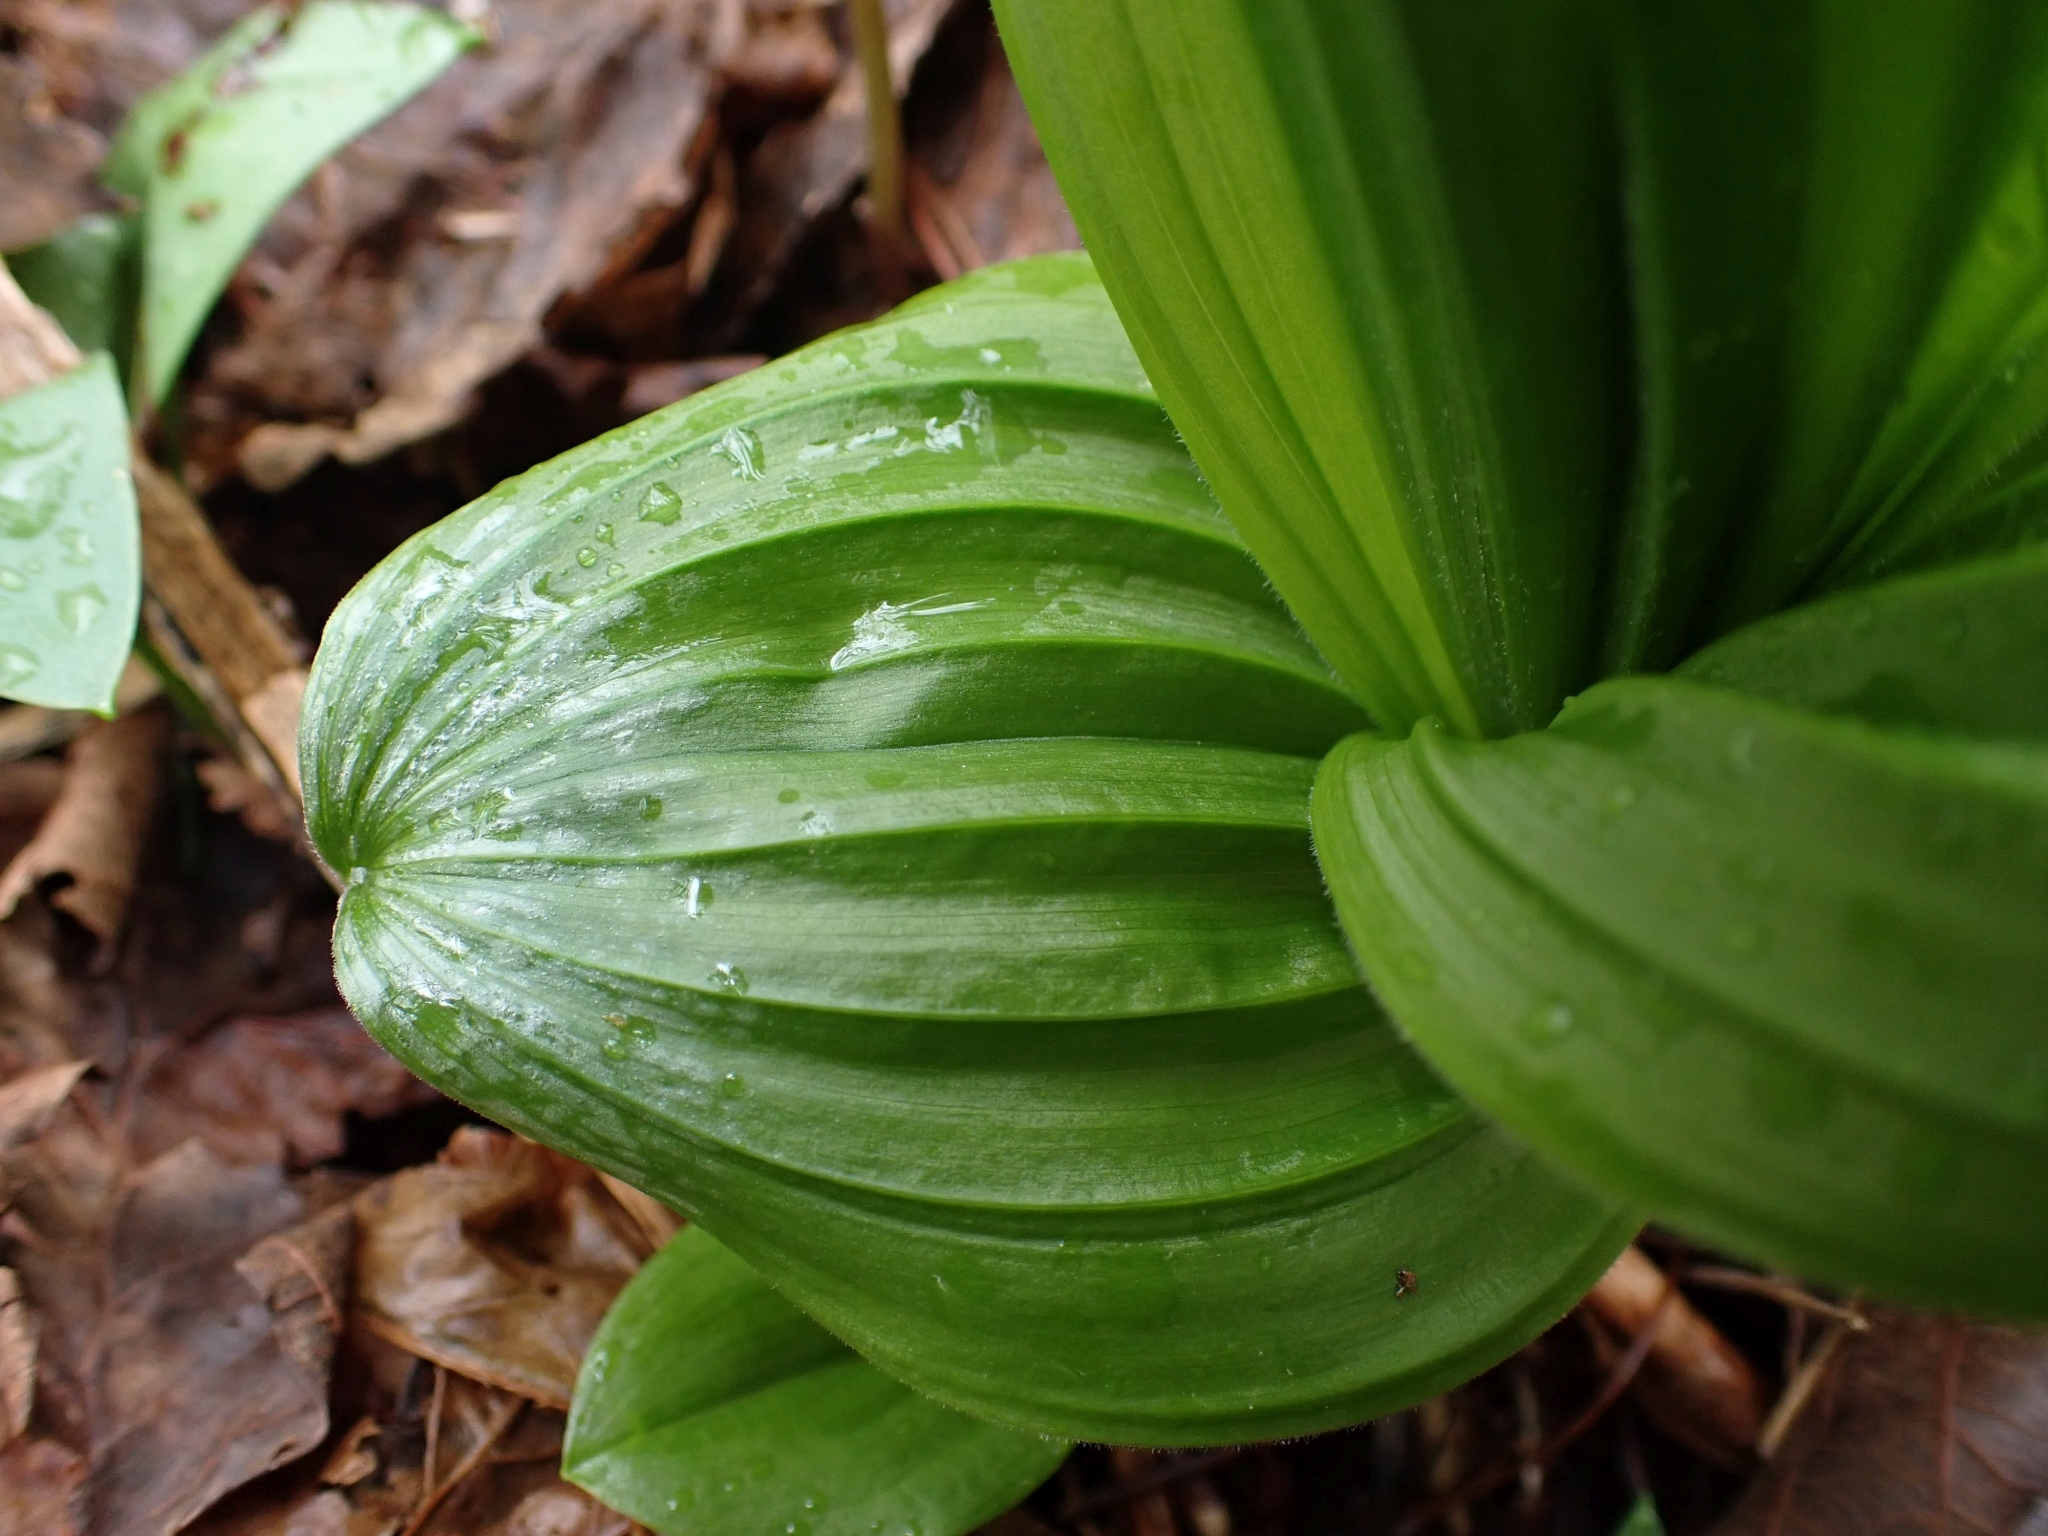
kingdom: Plantae
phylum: Tracheophyta
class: Liliopsida
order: Liliales
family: Melanthiaceae
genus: Veratrum
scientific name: Veratrum viride
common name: American false hellebore
